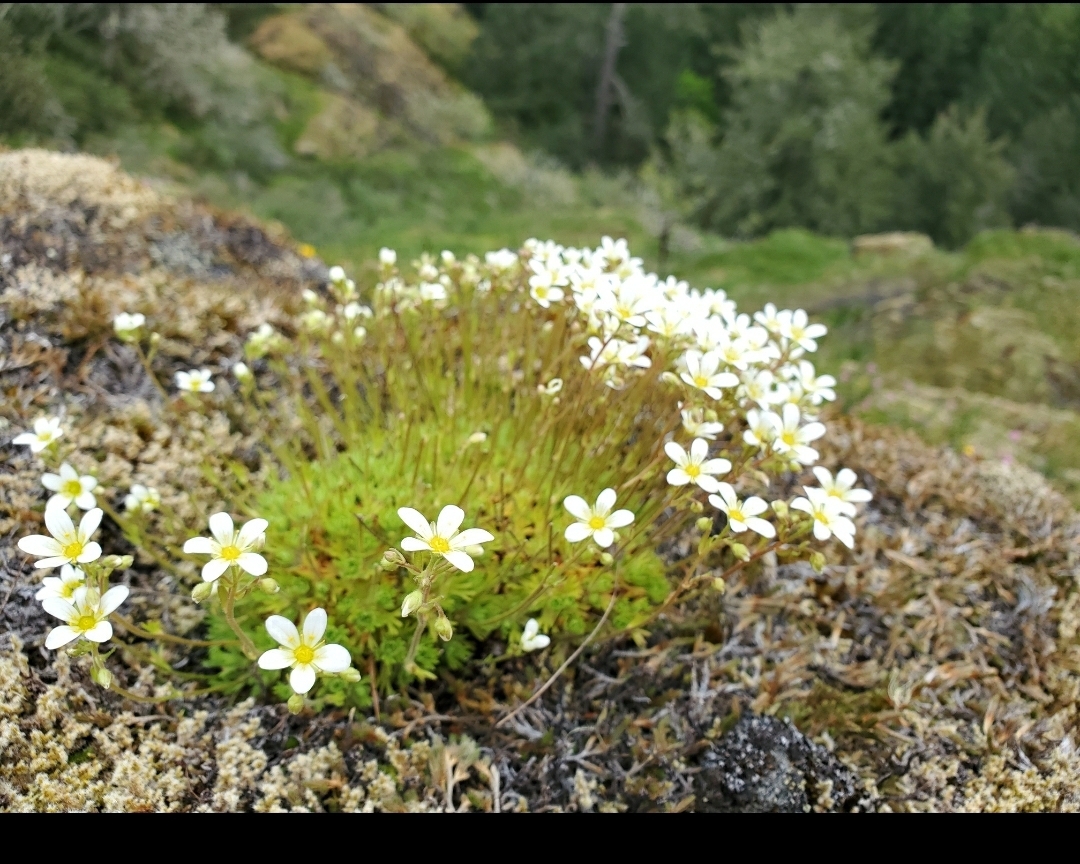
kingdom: Plantae
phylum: Tracheophyta
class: Magnoliopsida
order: Saxifragales
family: Saxifragaceae
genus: Saxifraga
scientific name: Saxifraga cespitosa
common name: Tufted saxifrage
